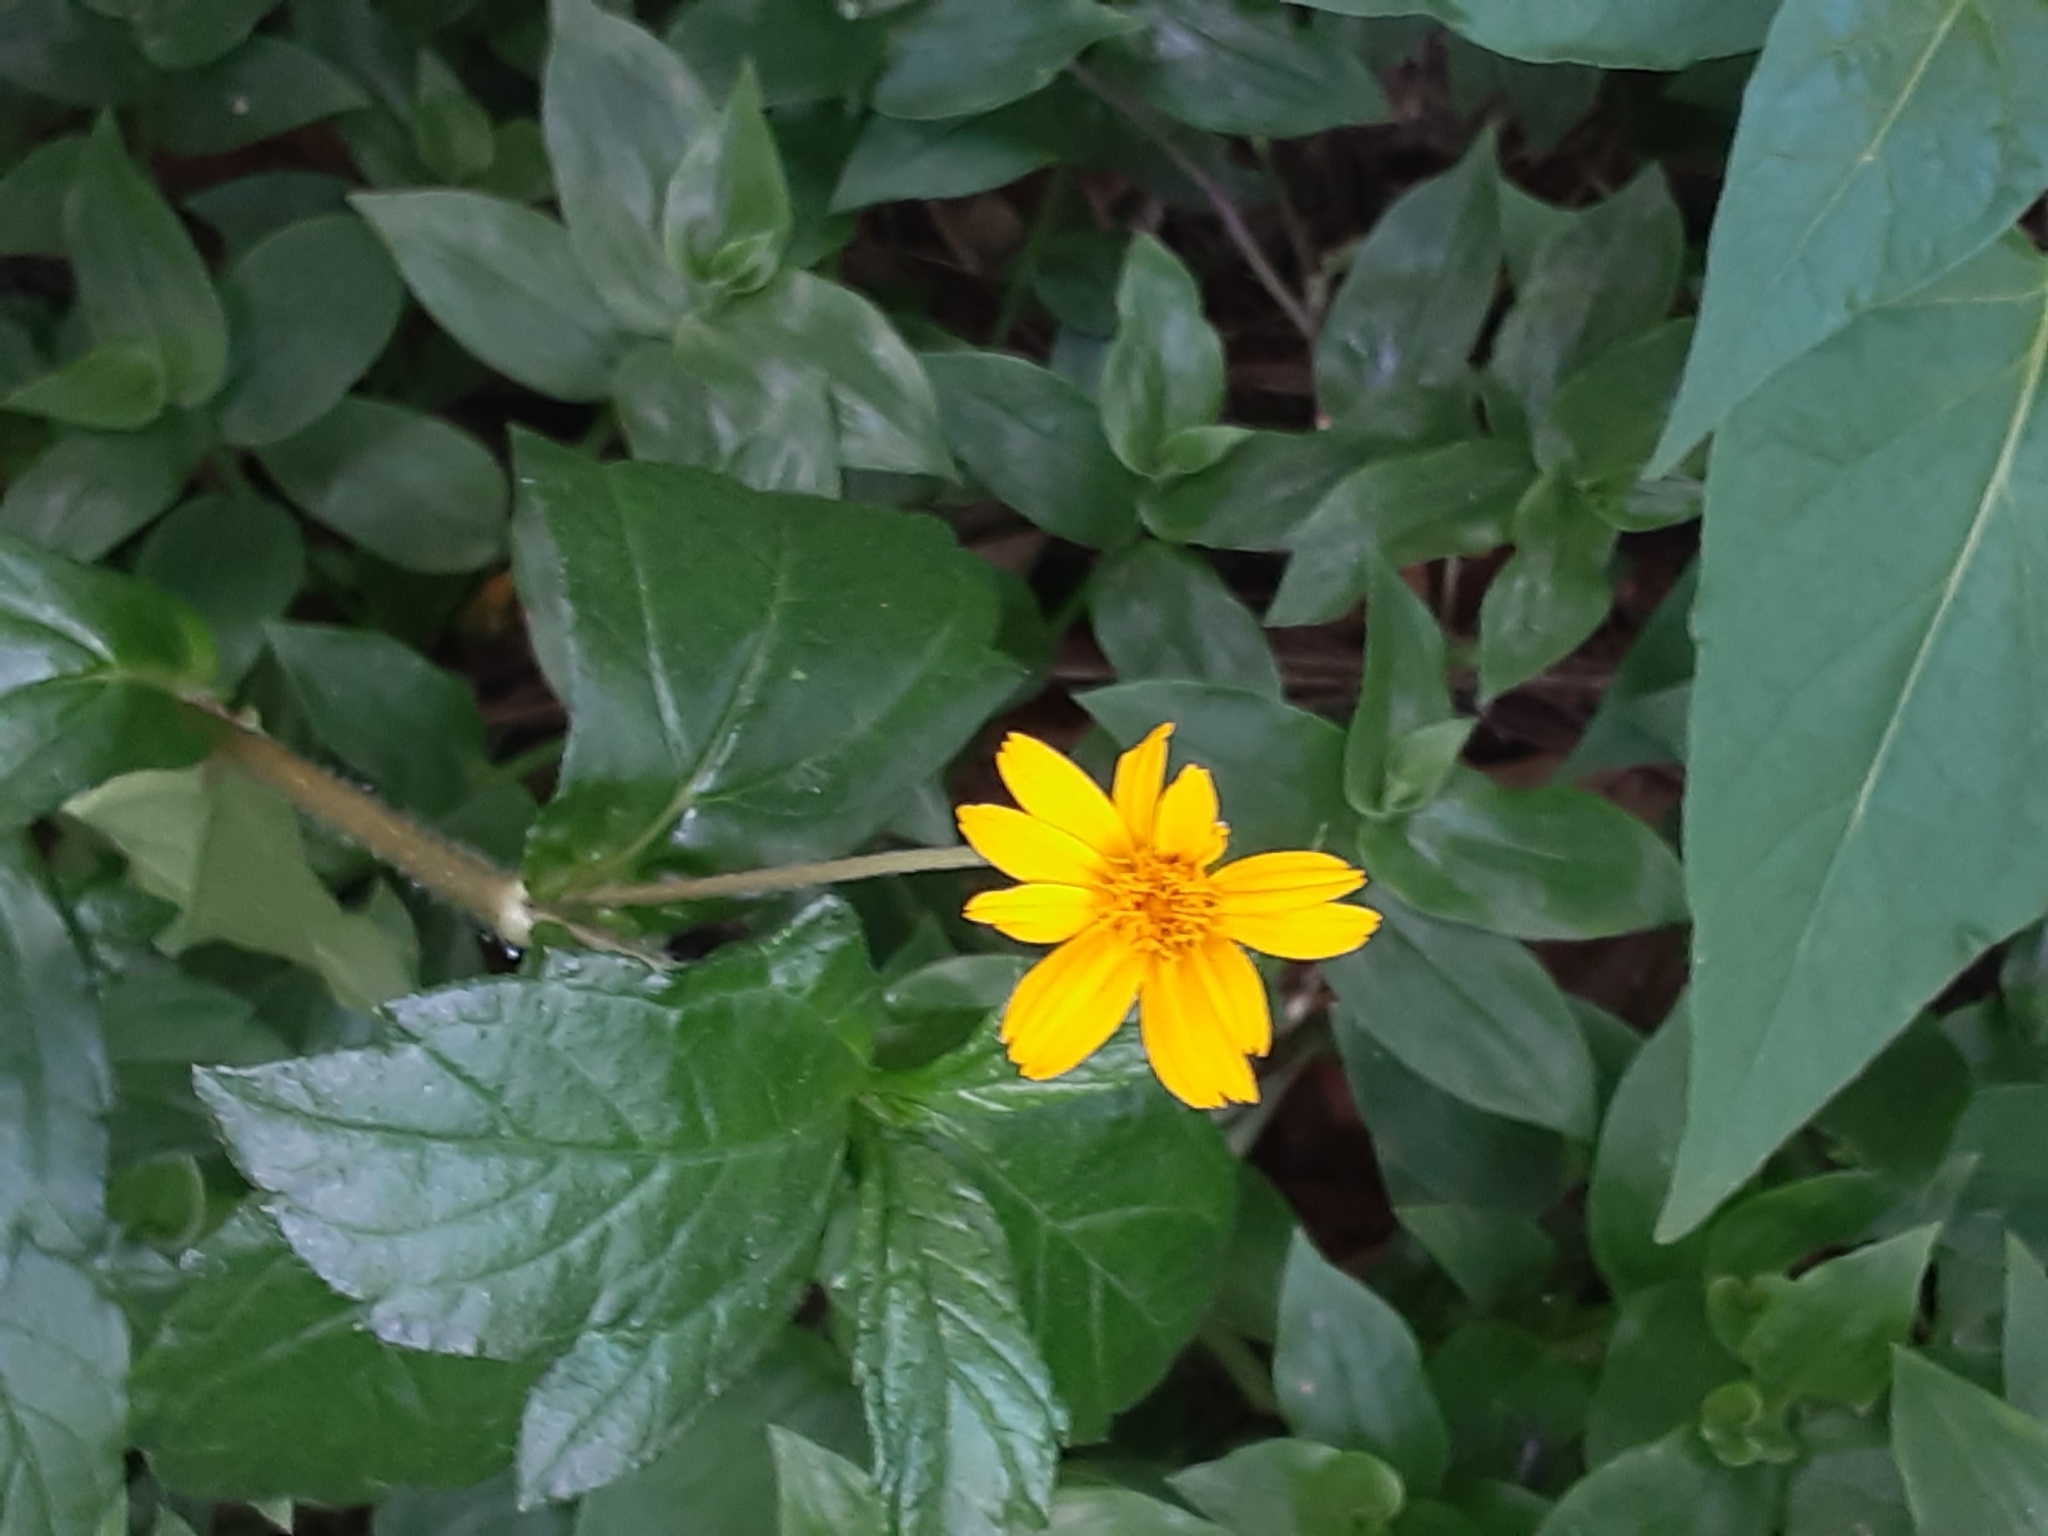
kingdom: Plantae
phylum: Tracheophyta
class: Magnoliopsida
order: Asterales
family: Asteraceae
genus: Sphagneticola
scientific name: Sphagneticola trilobata
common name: Bay biscayne creeping-oxeye
